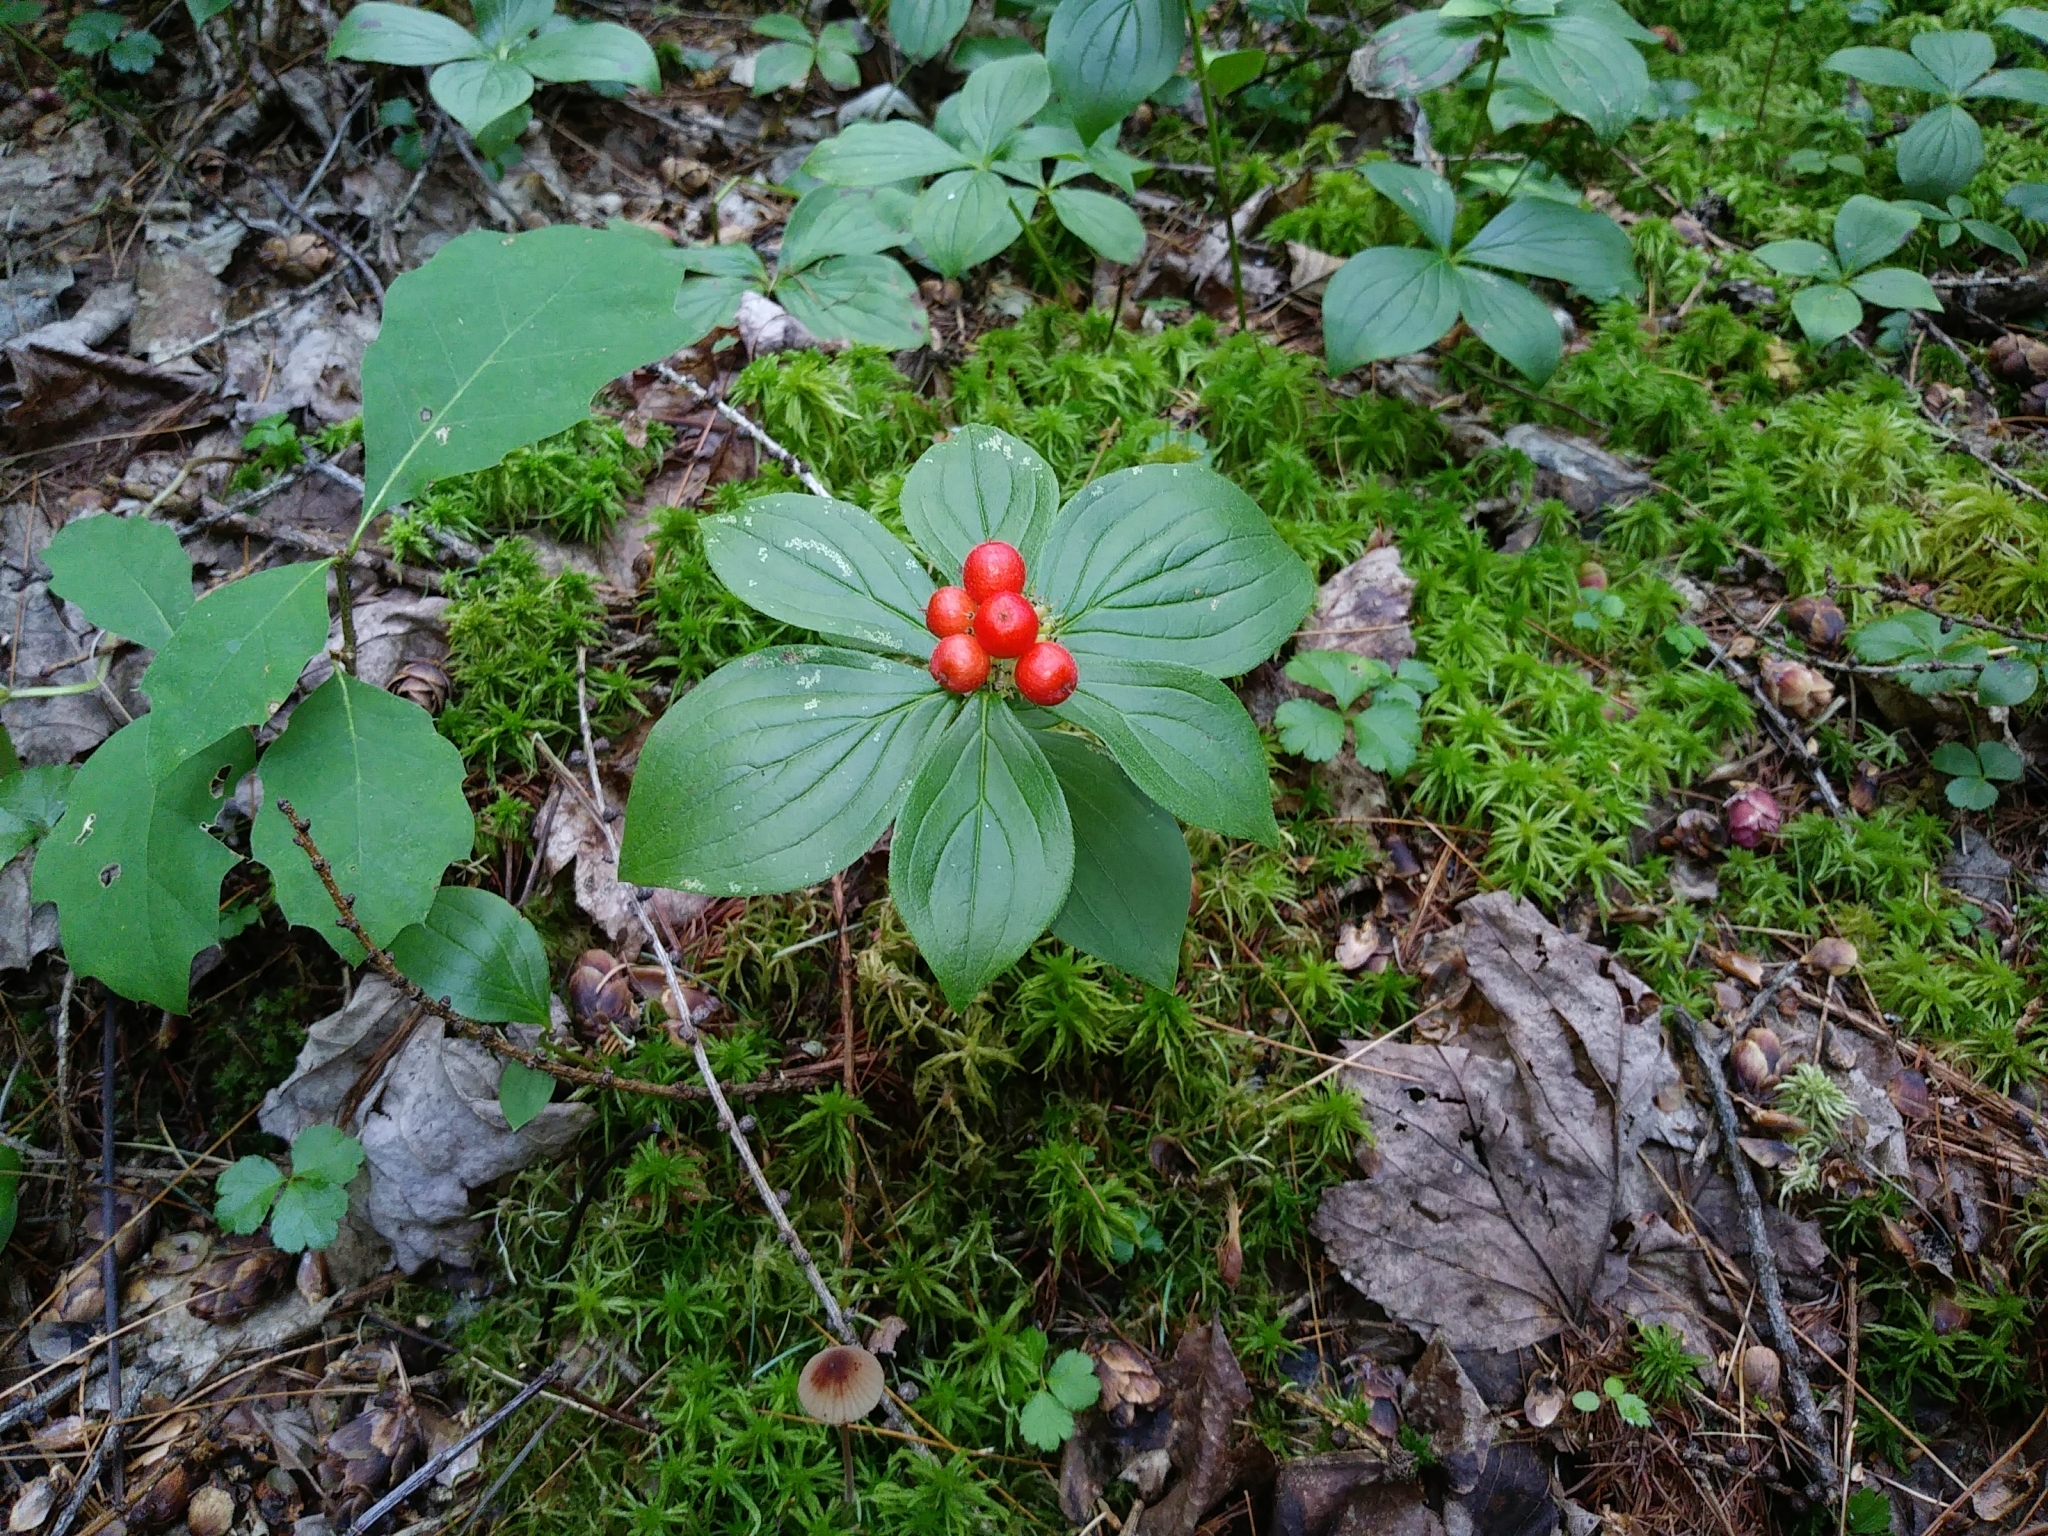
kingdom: Plantae
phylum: Tracheophyta
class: Magnoliopsida
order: Cornales
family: Cornaceae
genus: Cornus
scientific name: Cornus canadensis
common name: Creeping dogwood
